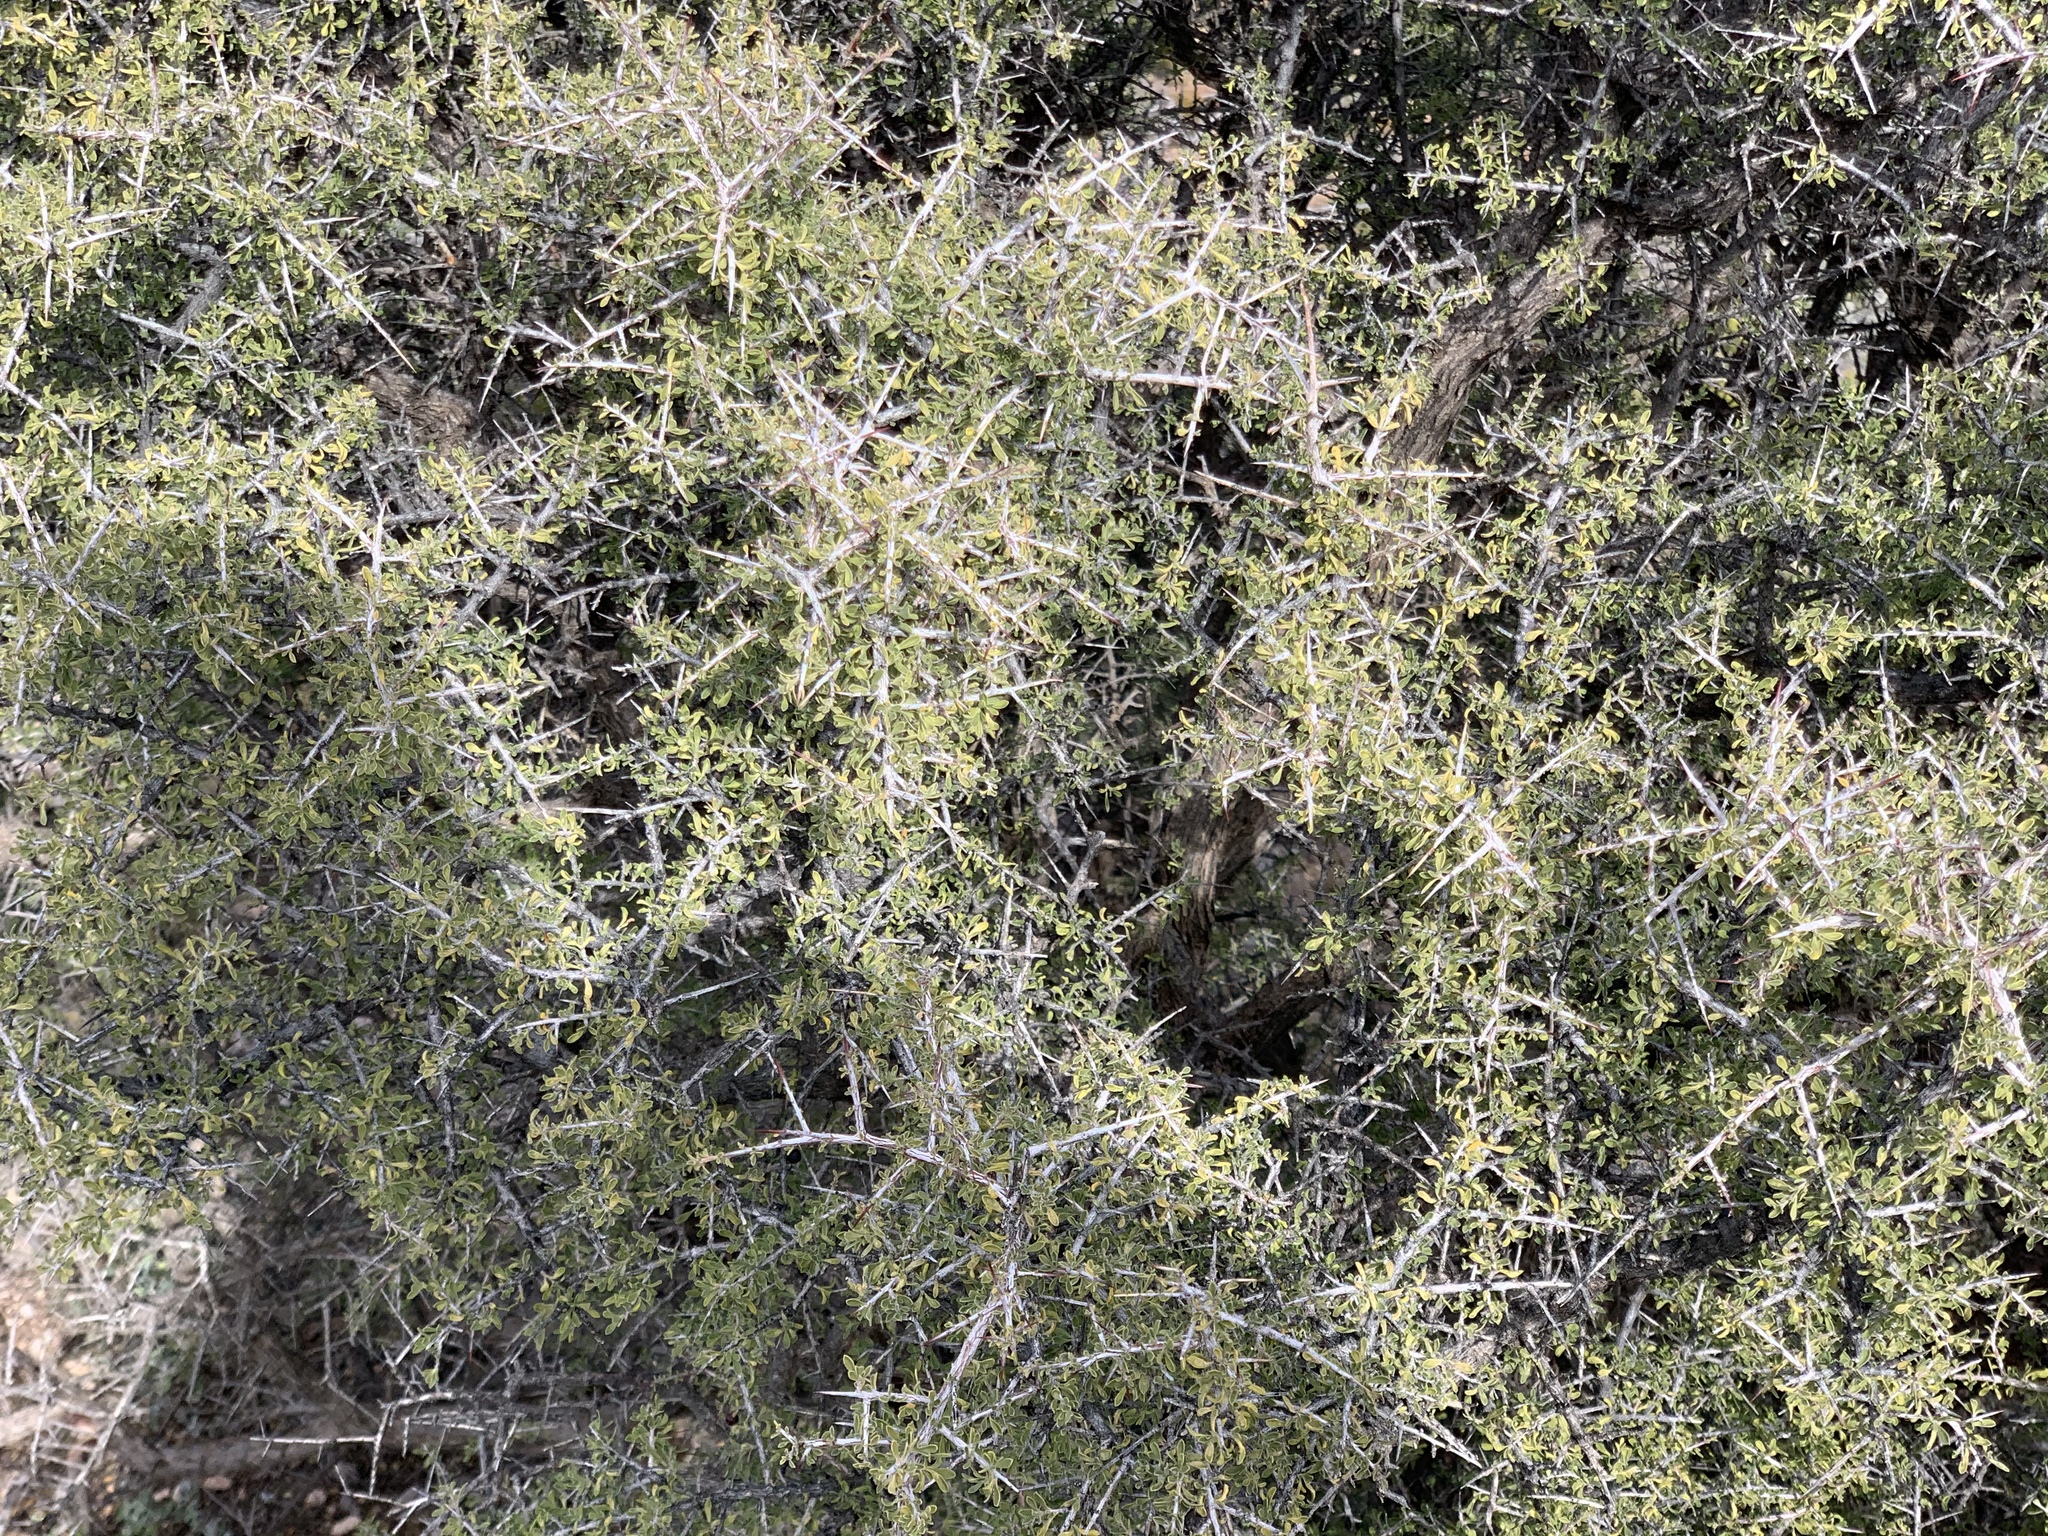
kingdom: Plantae
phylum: Tracheophyta
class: Magnoliopsida
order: Rosales
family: Rhamnaceae
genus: Condalia
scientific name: Condalia warnockii
